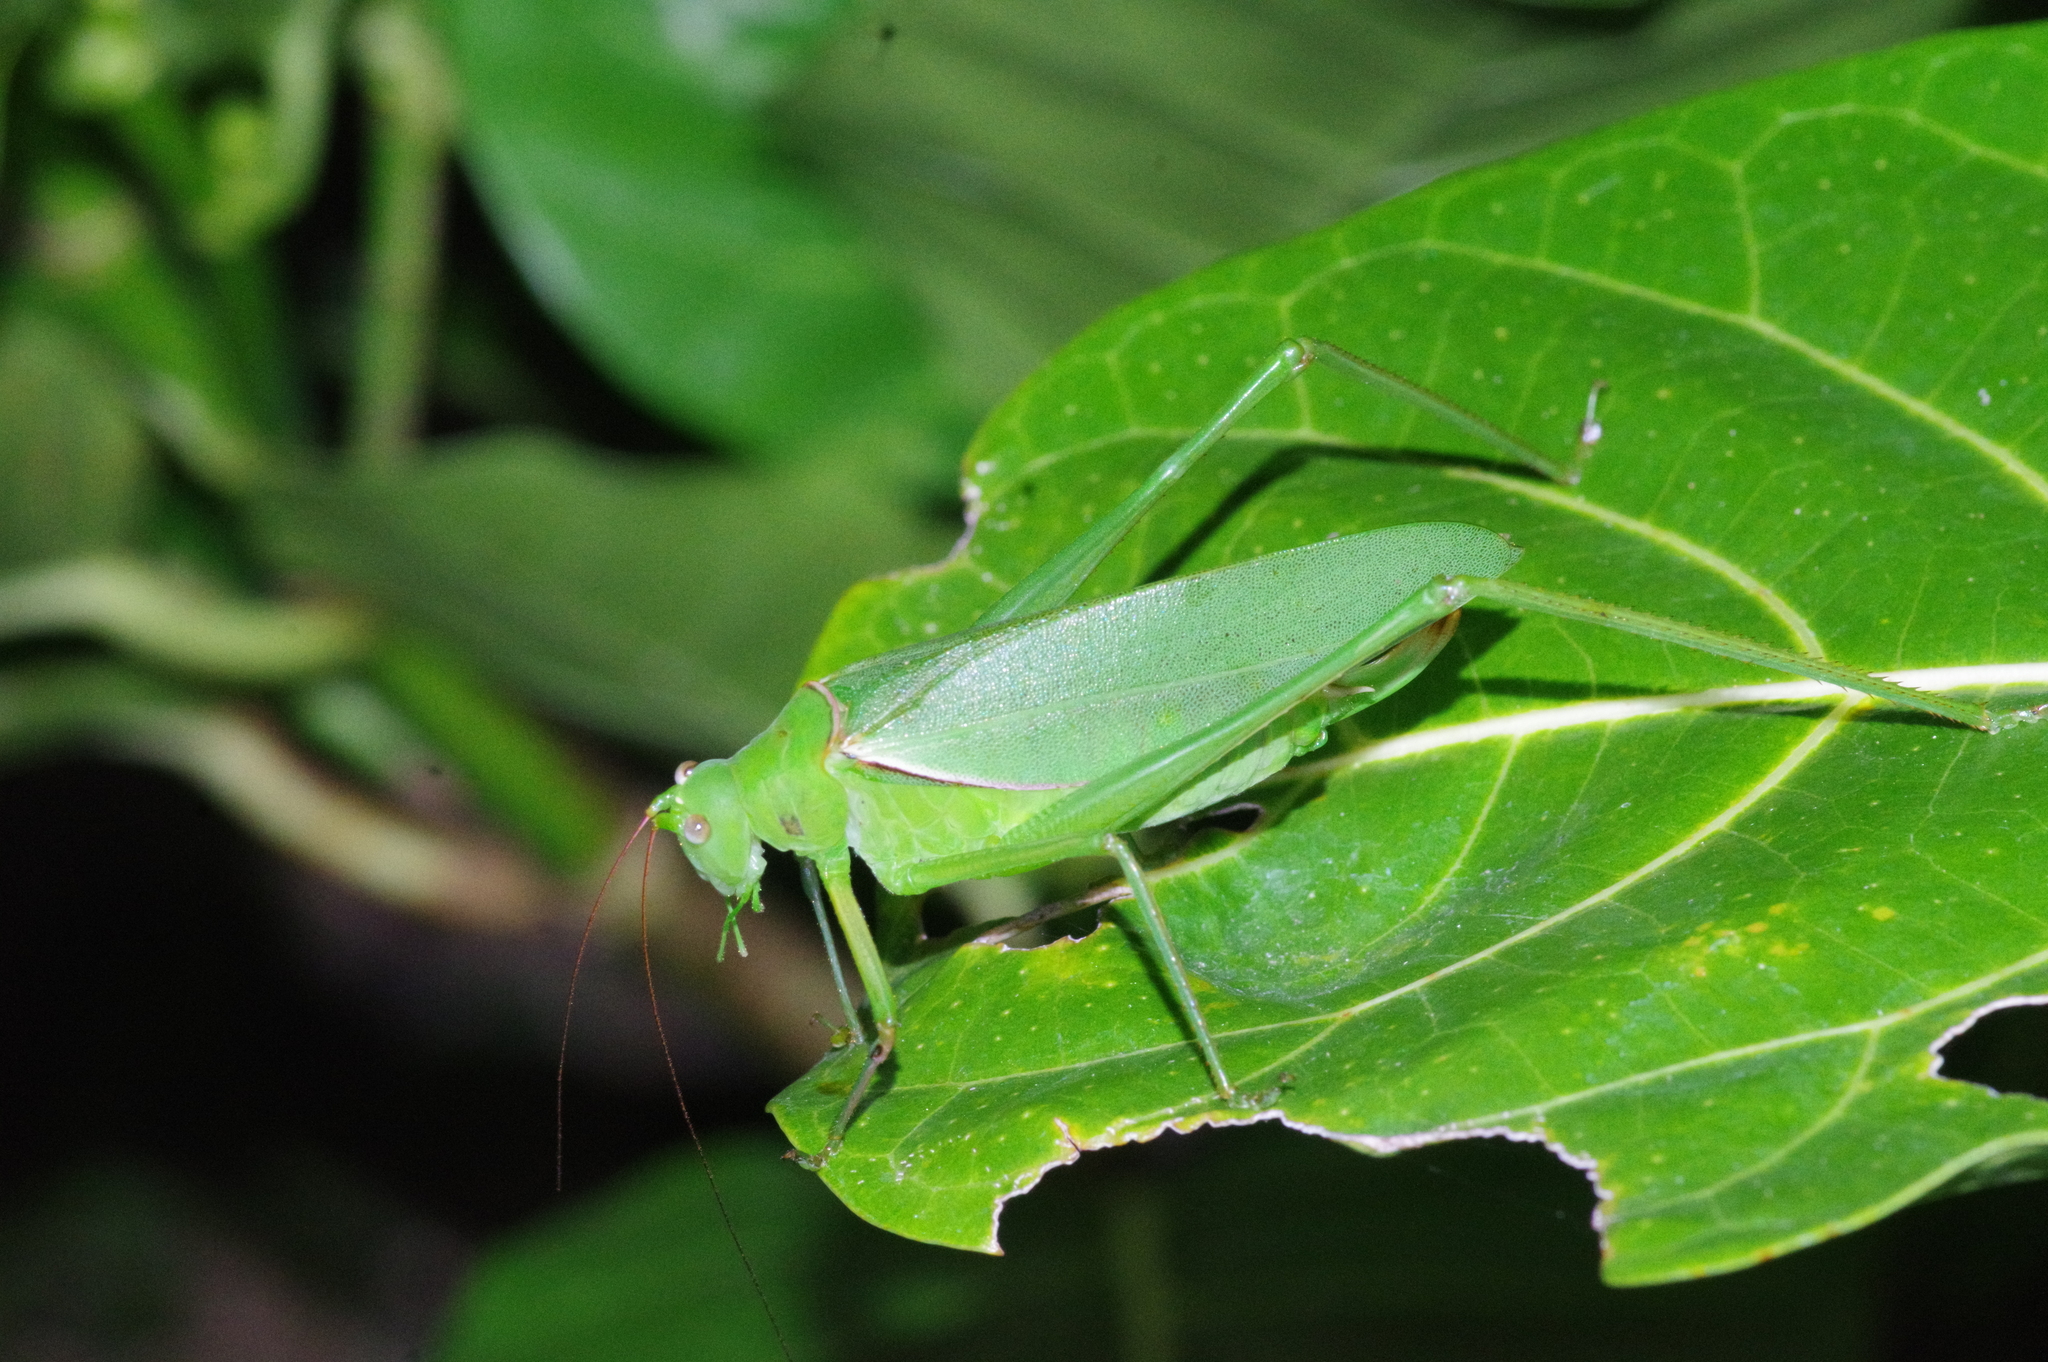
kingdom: Animalia
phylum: Arthropoda
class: Insecta
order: Orthoptera
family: Tettigoniidae
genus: Psyrana
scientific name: Psyrana ryukyuensis
